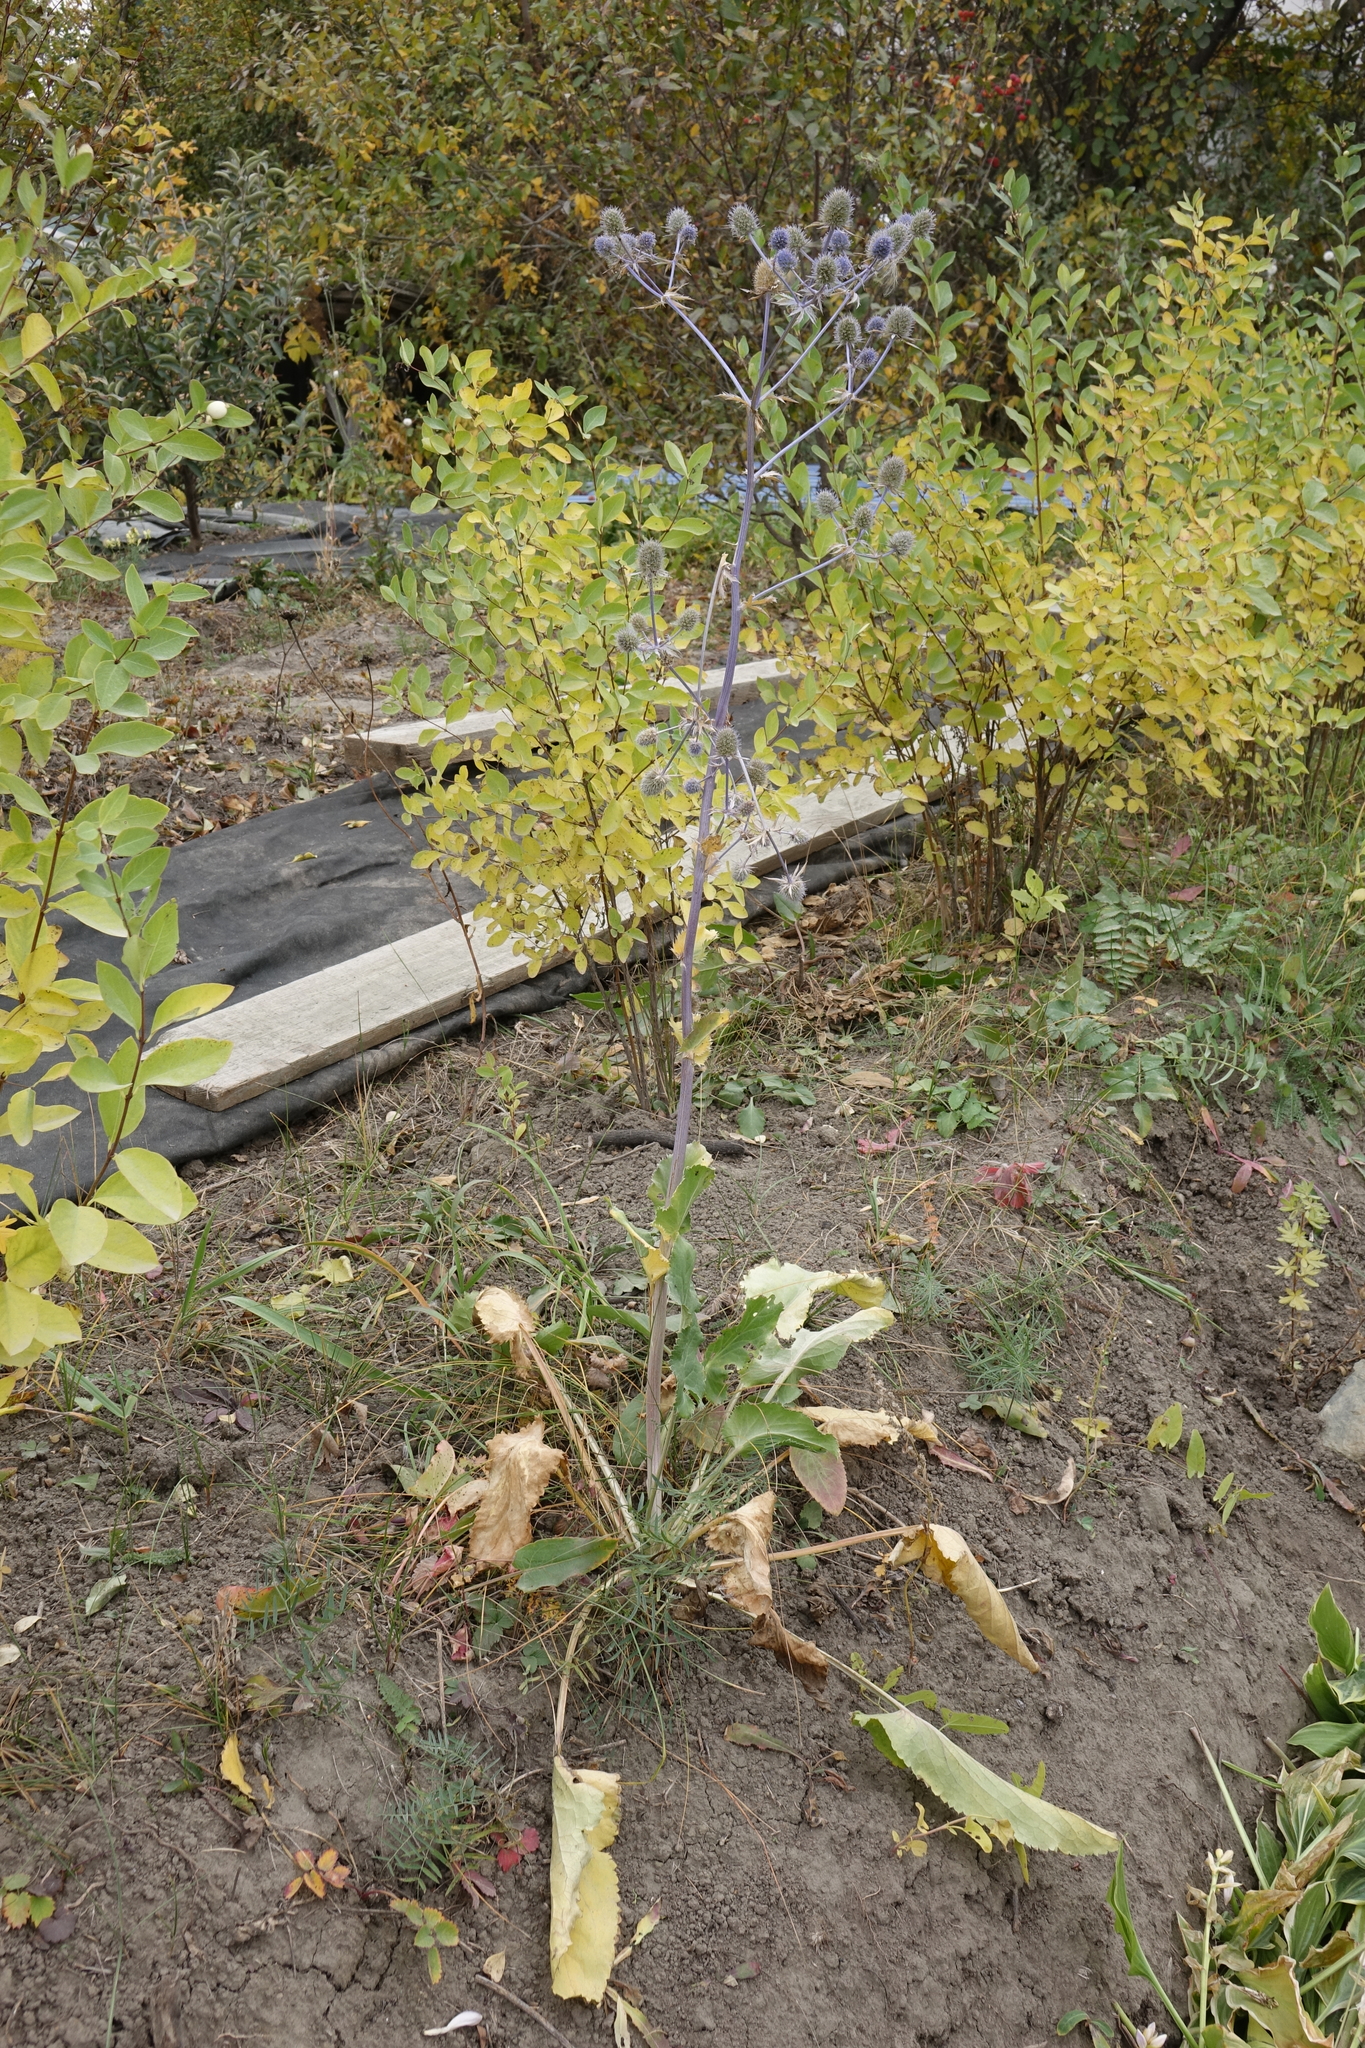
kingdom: Plantae
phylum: Tracheophyta
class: Magnoliopsida
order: Apiales
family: Apiaceae
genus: Eryngium
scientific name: Eryngium planum
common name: Blue eryngo
